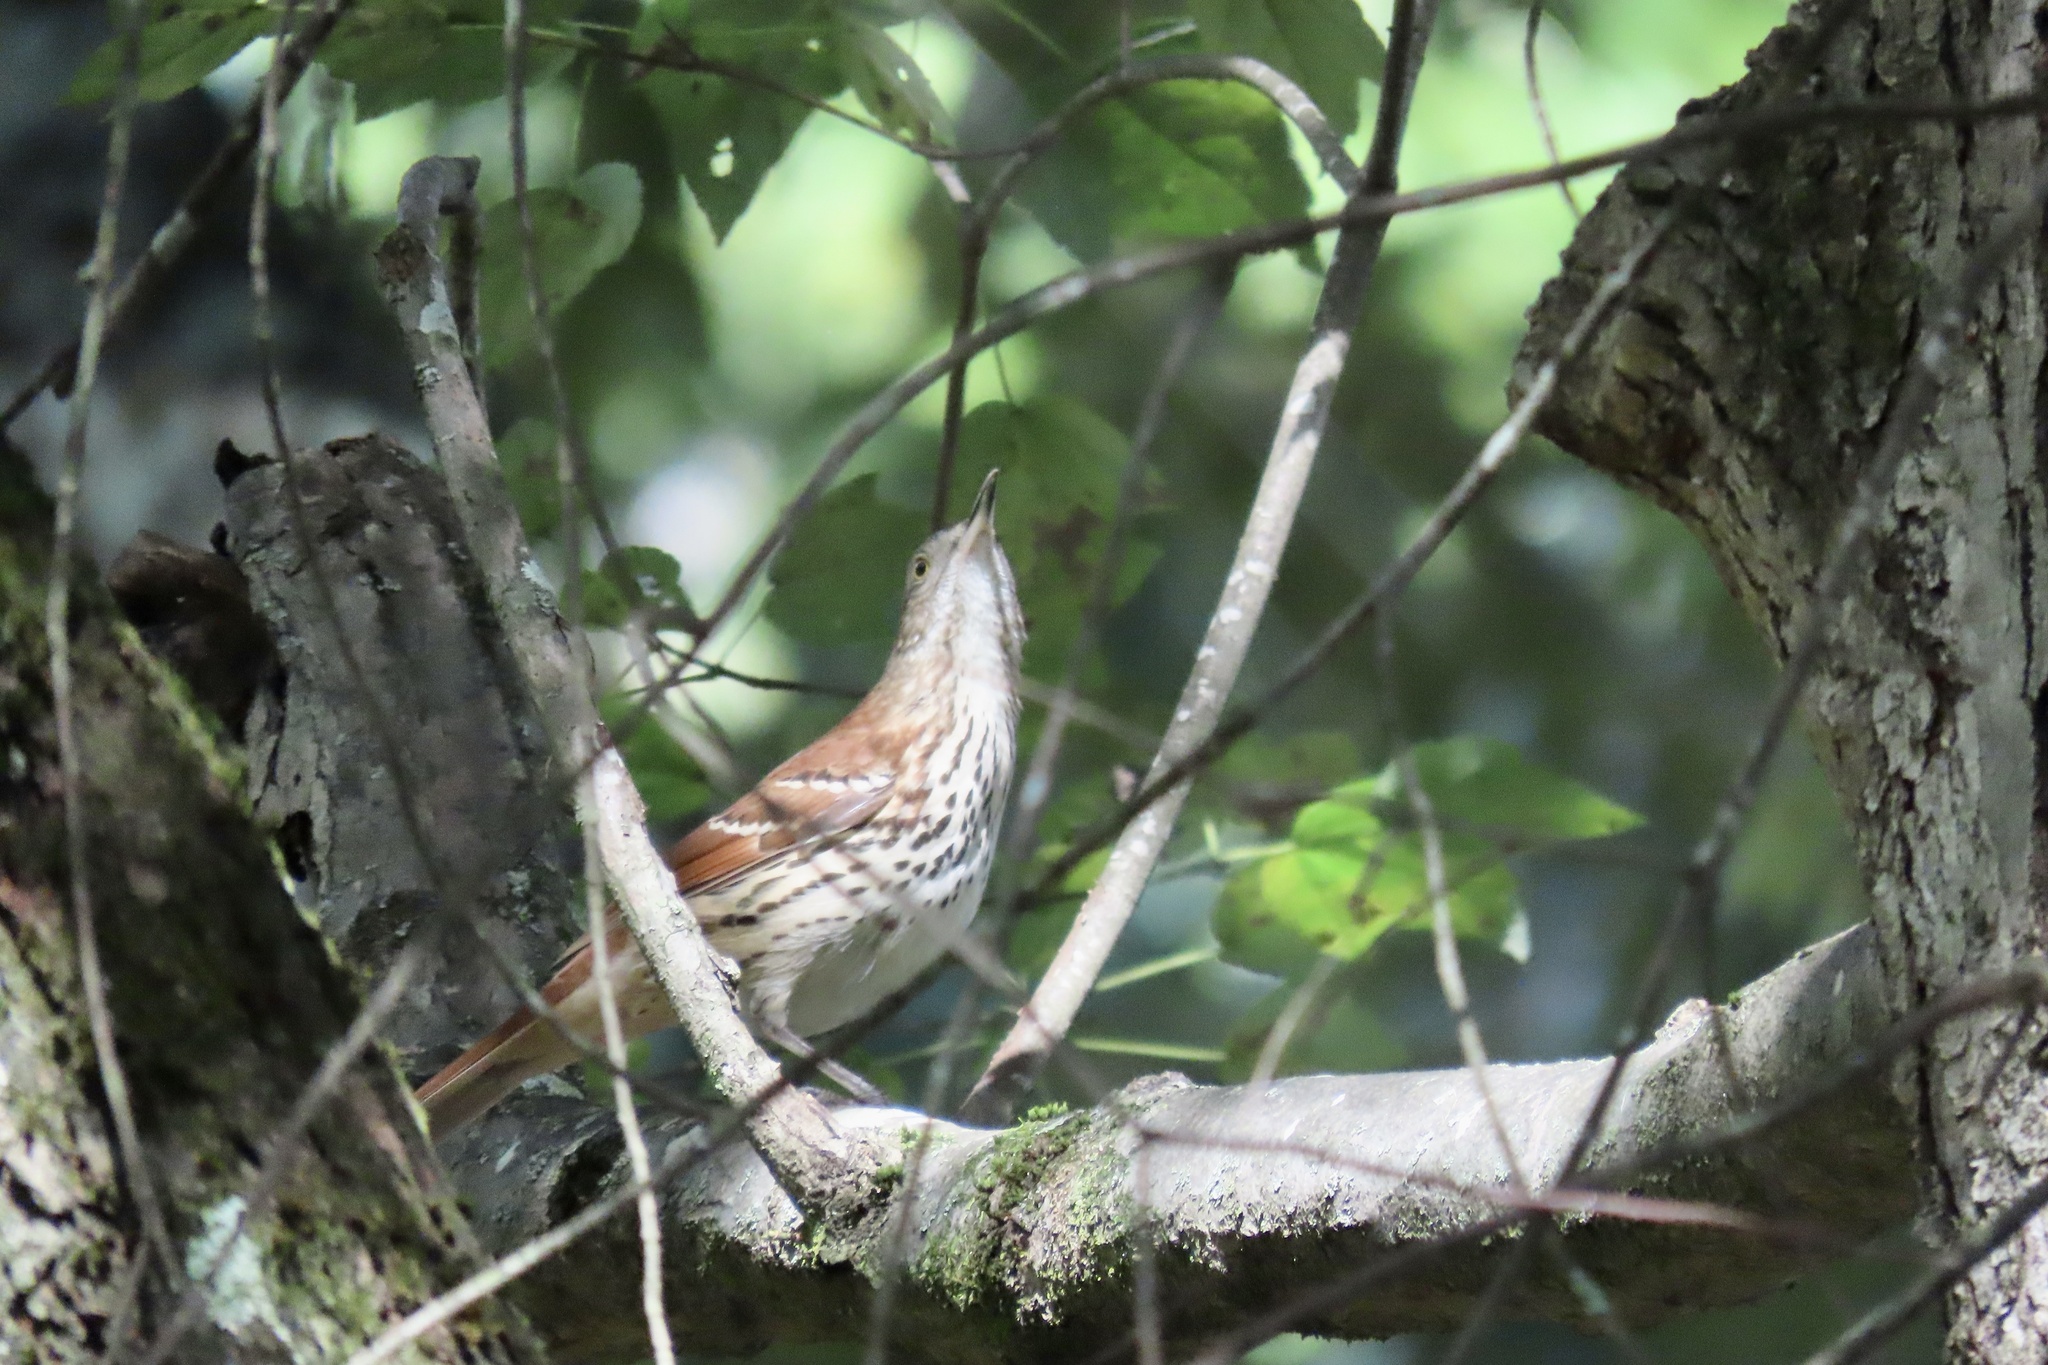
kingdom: Animalia
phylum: Chordata
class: Aves
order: Passeriformes
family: Mimidae
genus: Toxostoma
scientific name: Toxostoma rufum
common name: Brown thrasher
